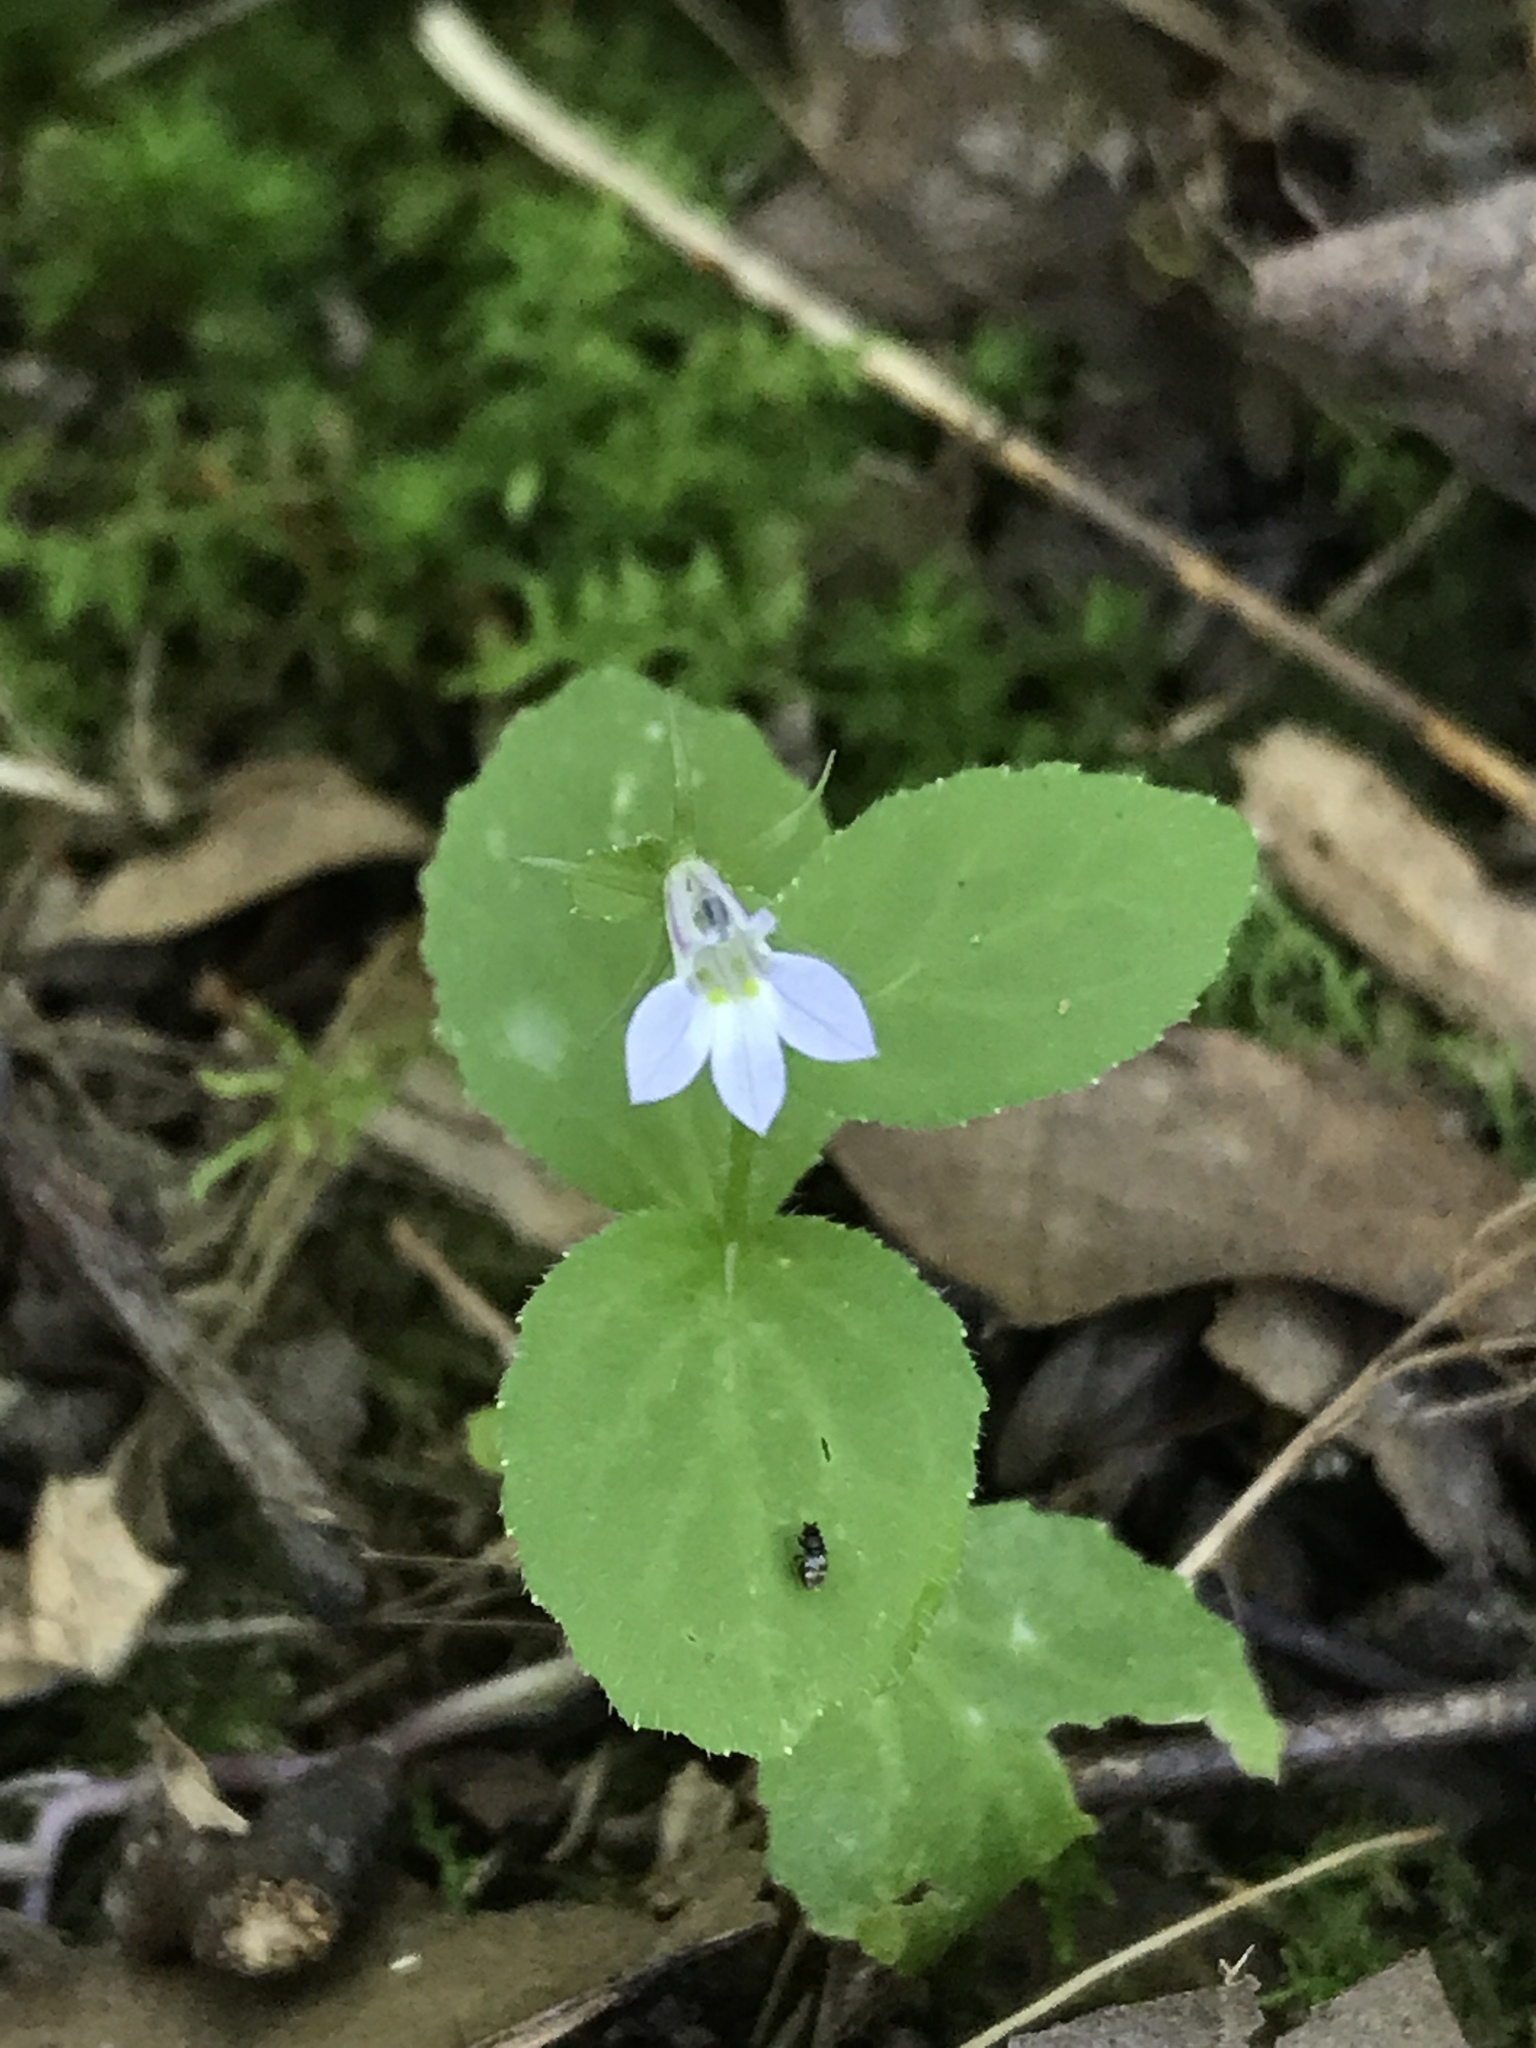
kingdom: Plantae
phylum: Tracheophyta
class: Magnoliopsida
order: Asterales
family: Campanulaceae
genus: Lobelia
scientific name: Lobelia inflata
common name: Indian tobacco
